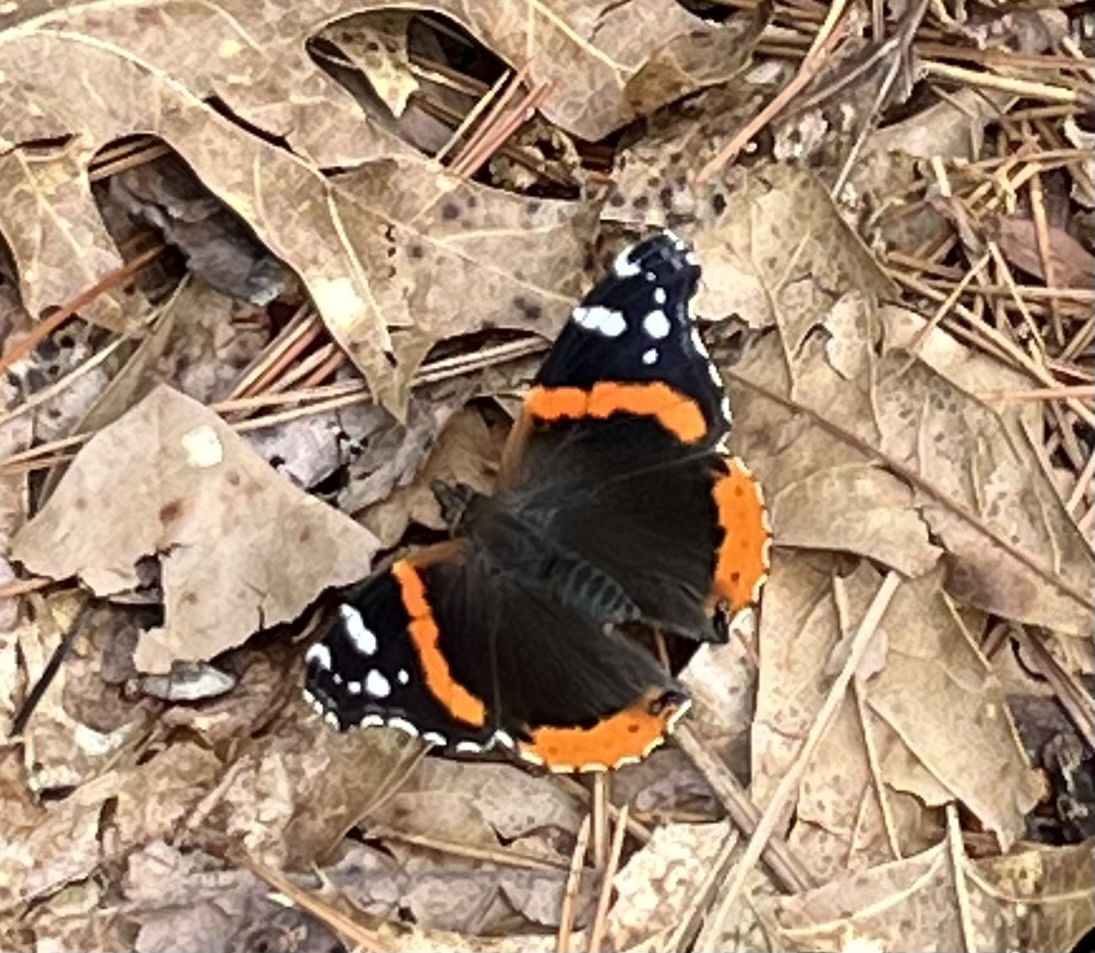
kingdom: Animalia
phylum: Arthropoda
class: Insecta
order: Lepidoptera
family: Nymphalidae
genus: Vanessa
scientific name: Vanessa atalanta
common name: Red admiral
